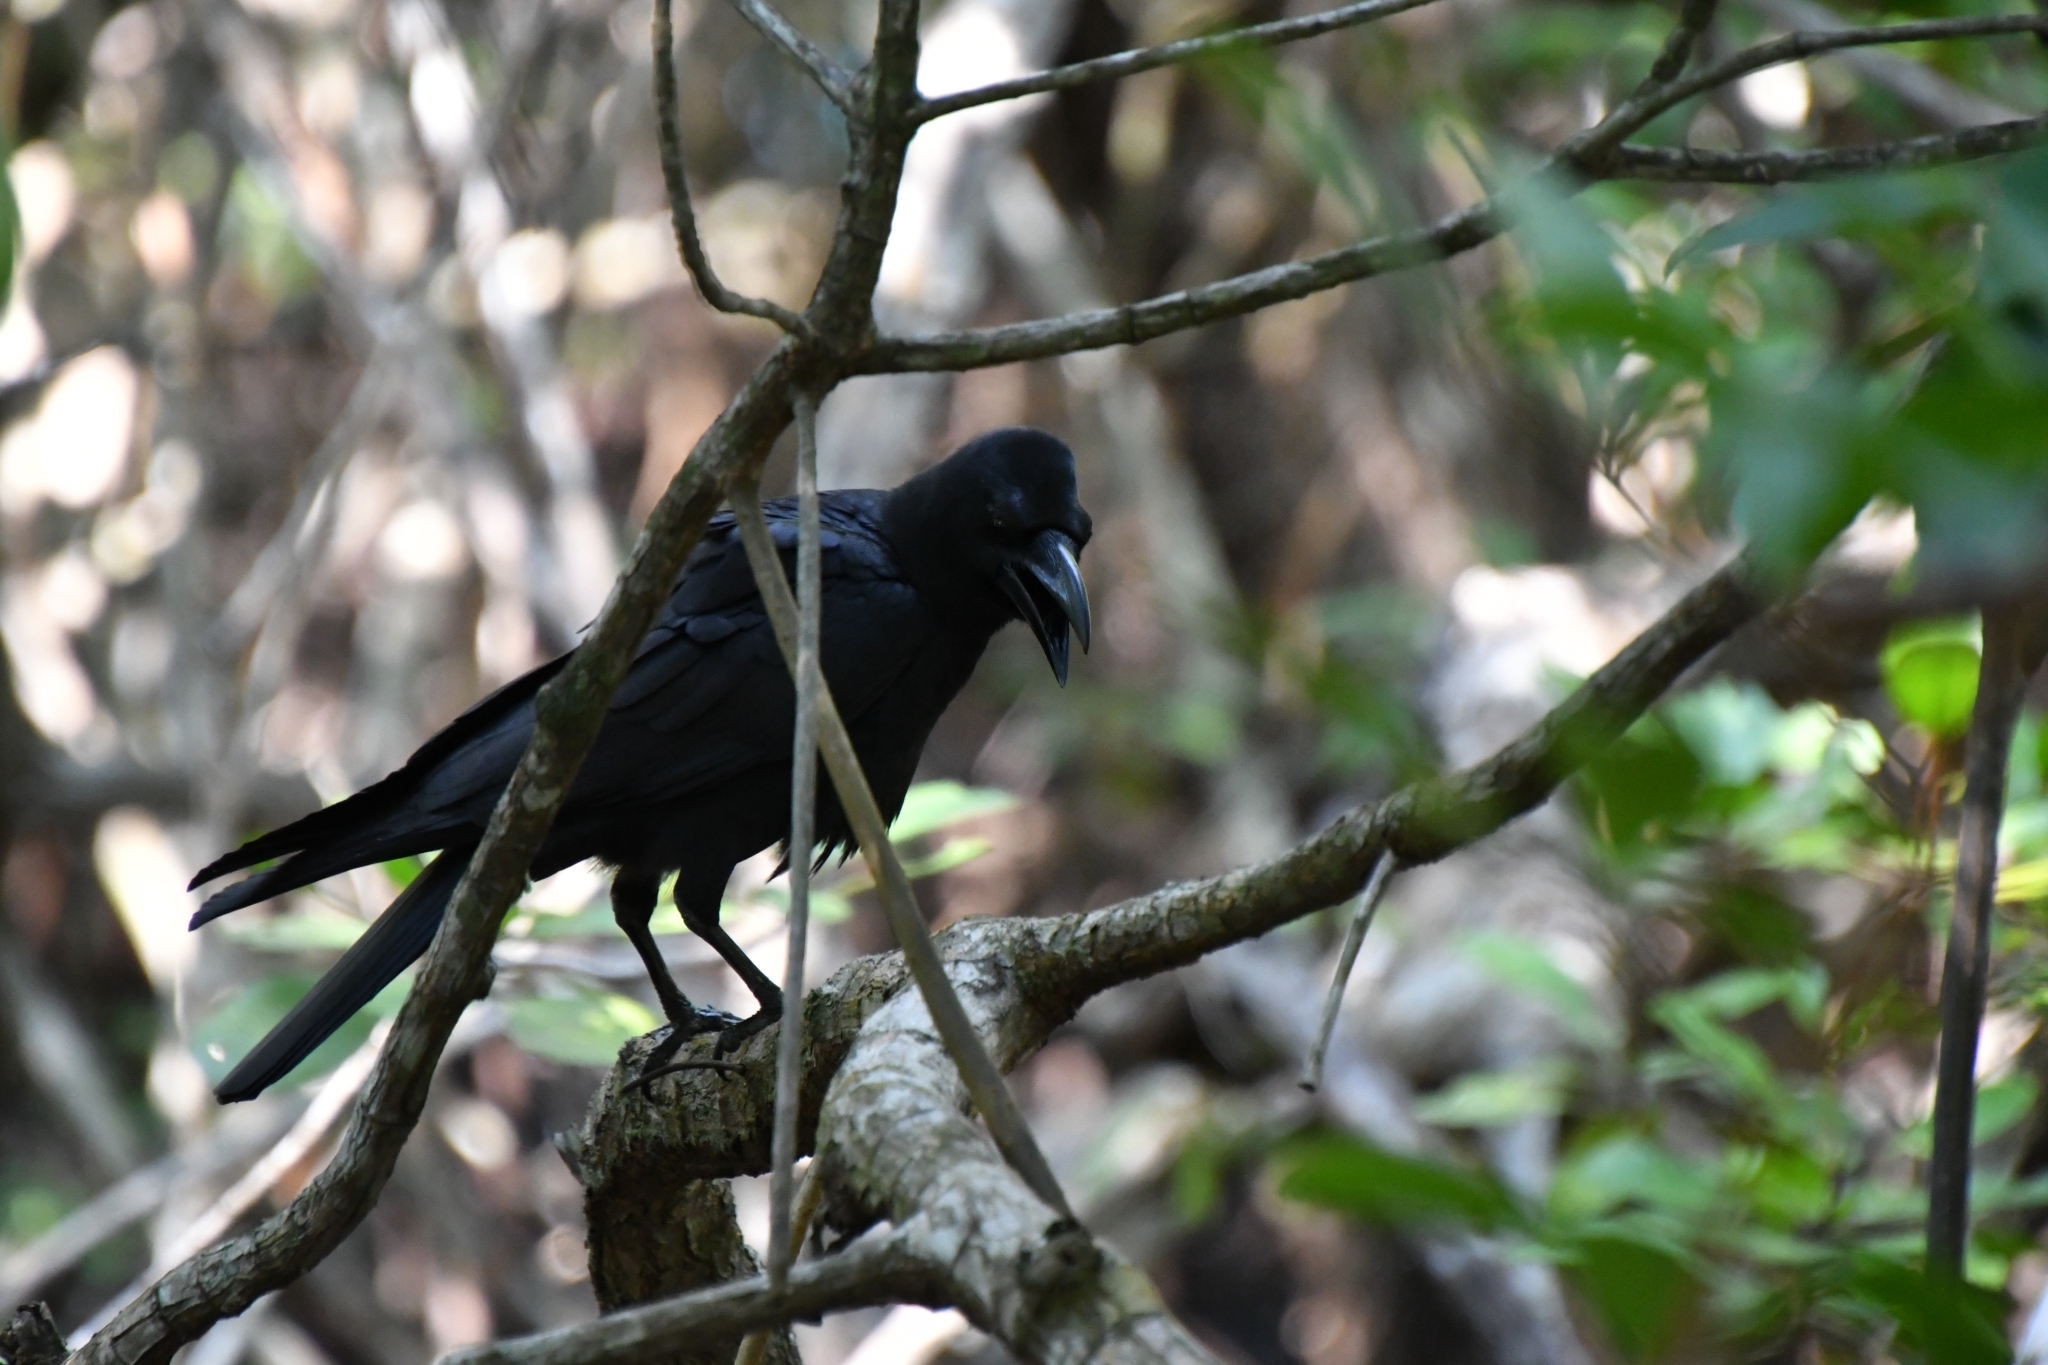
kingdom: Animalia
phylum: Chordata
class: Aves
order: Passeriformes
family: Corvidae
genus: Corvus
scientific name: Corvus macrorhynchos
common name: Large-billed crow
